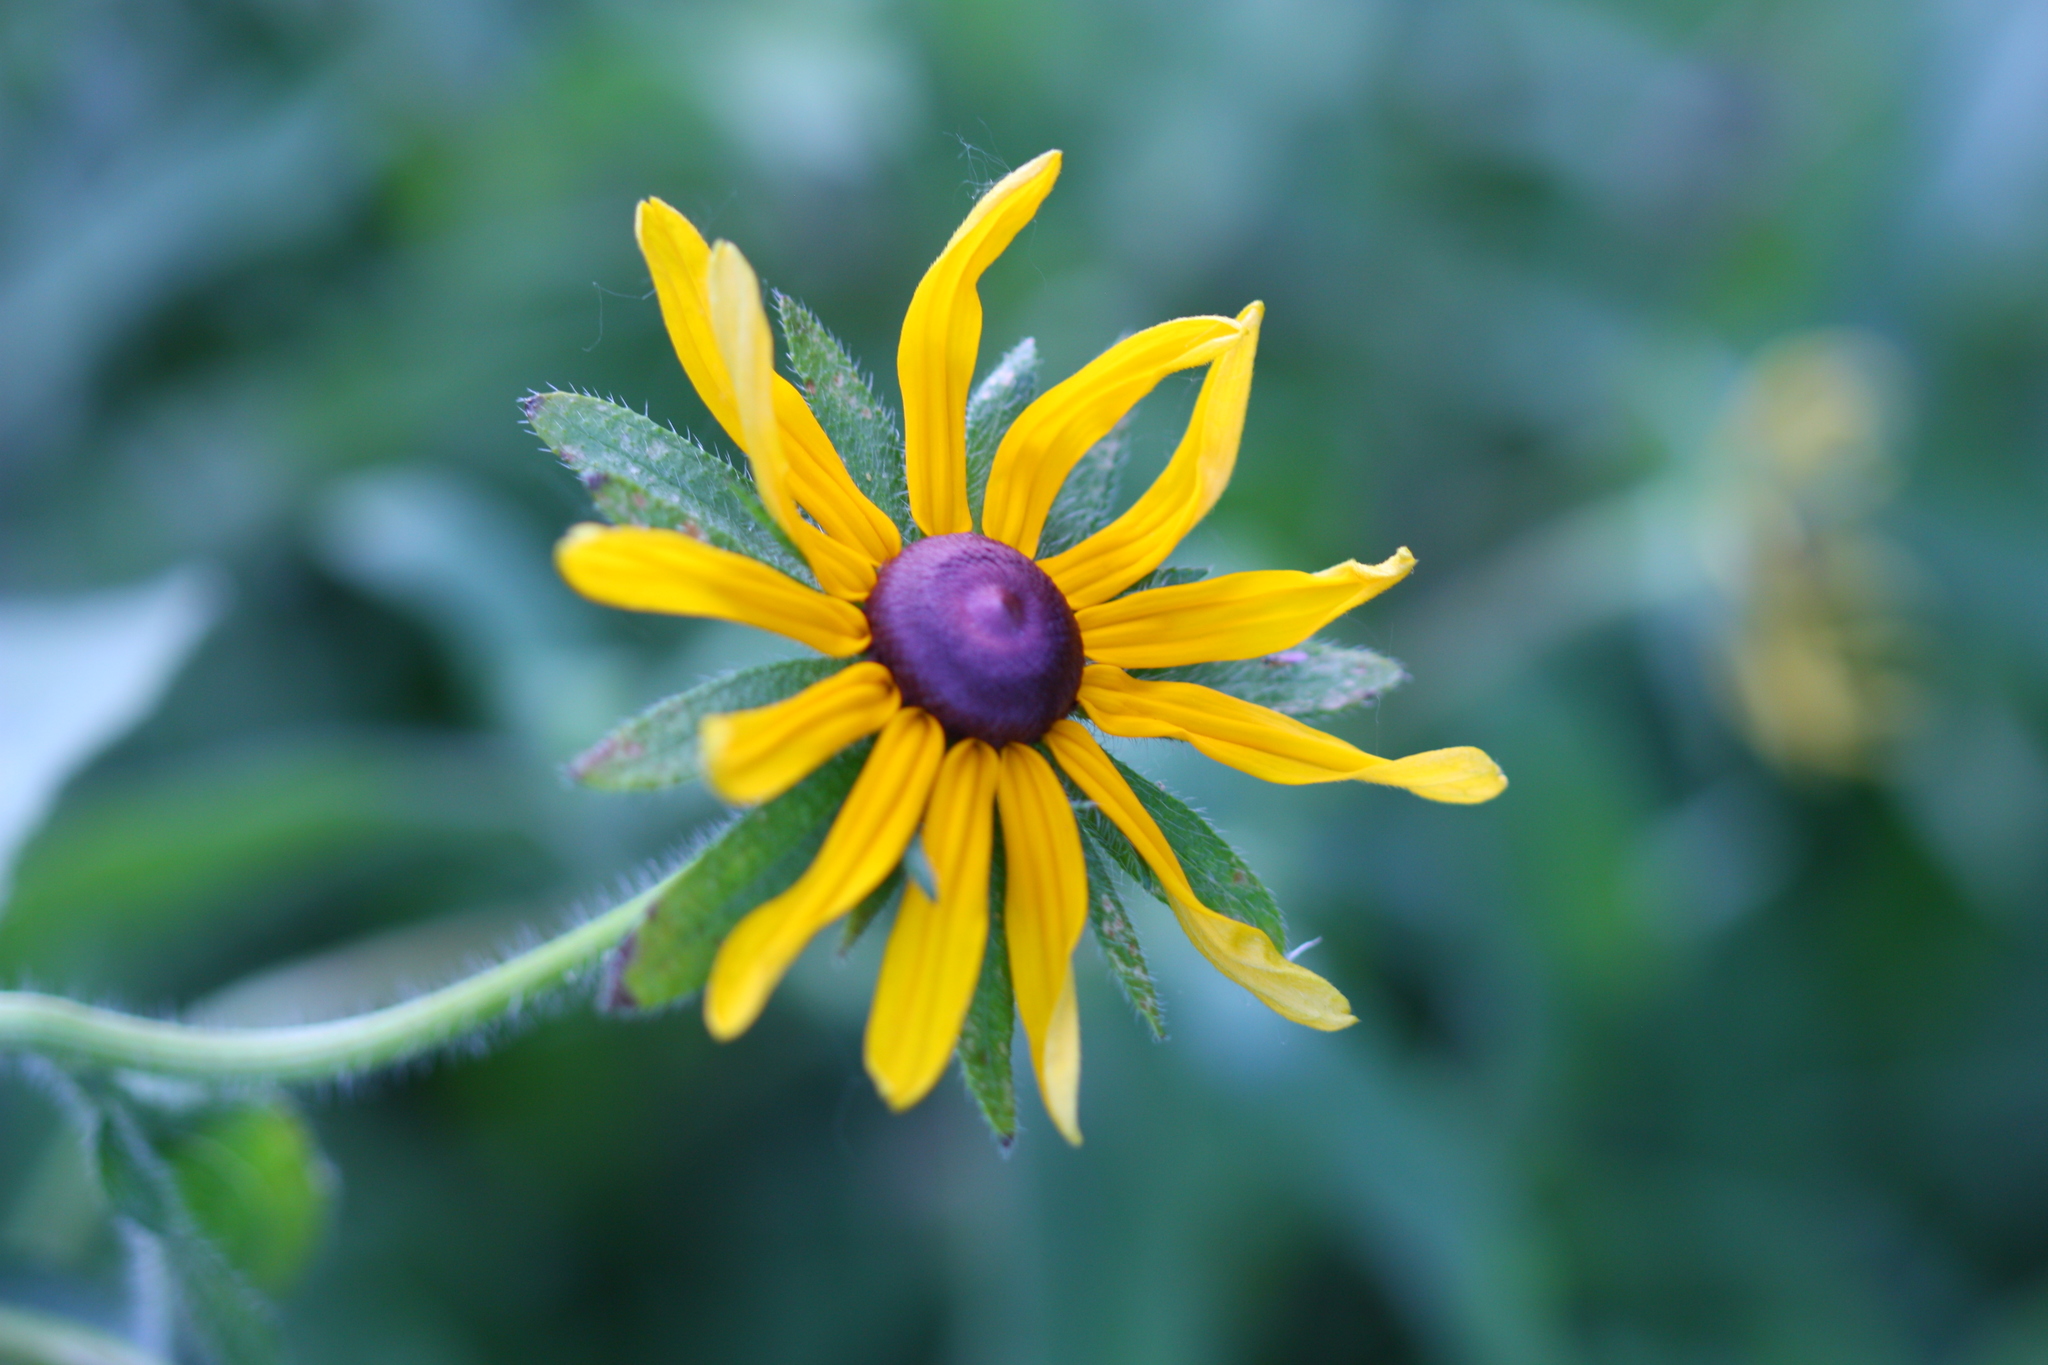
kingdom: Plantae
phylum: Tracheophyta
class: Magnoliopsida
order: Asterales
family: Asteraceae
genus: Rudbeckia
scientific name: Rudbeckia hirta
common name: Black-eyed-susan
